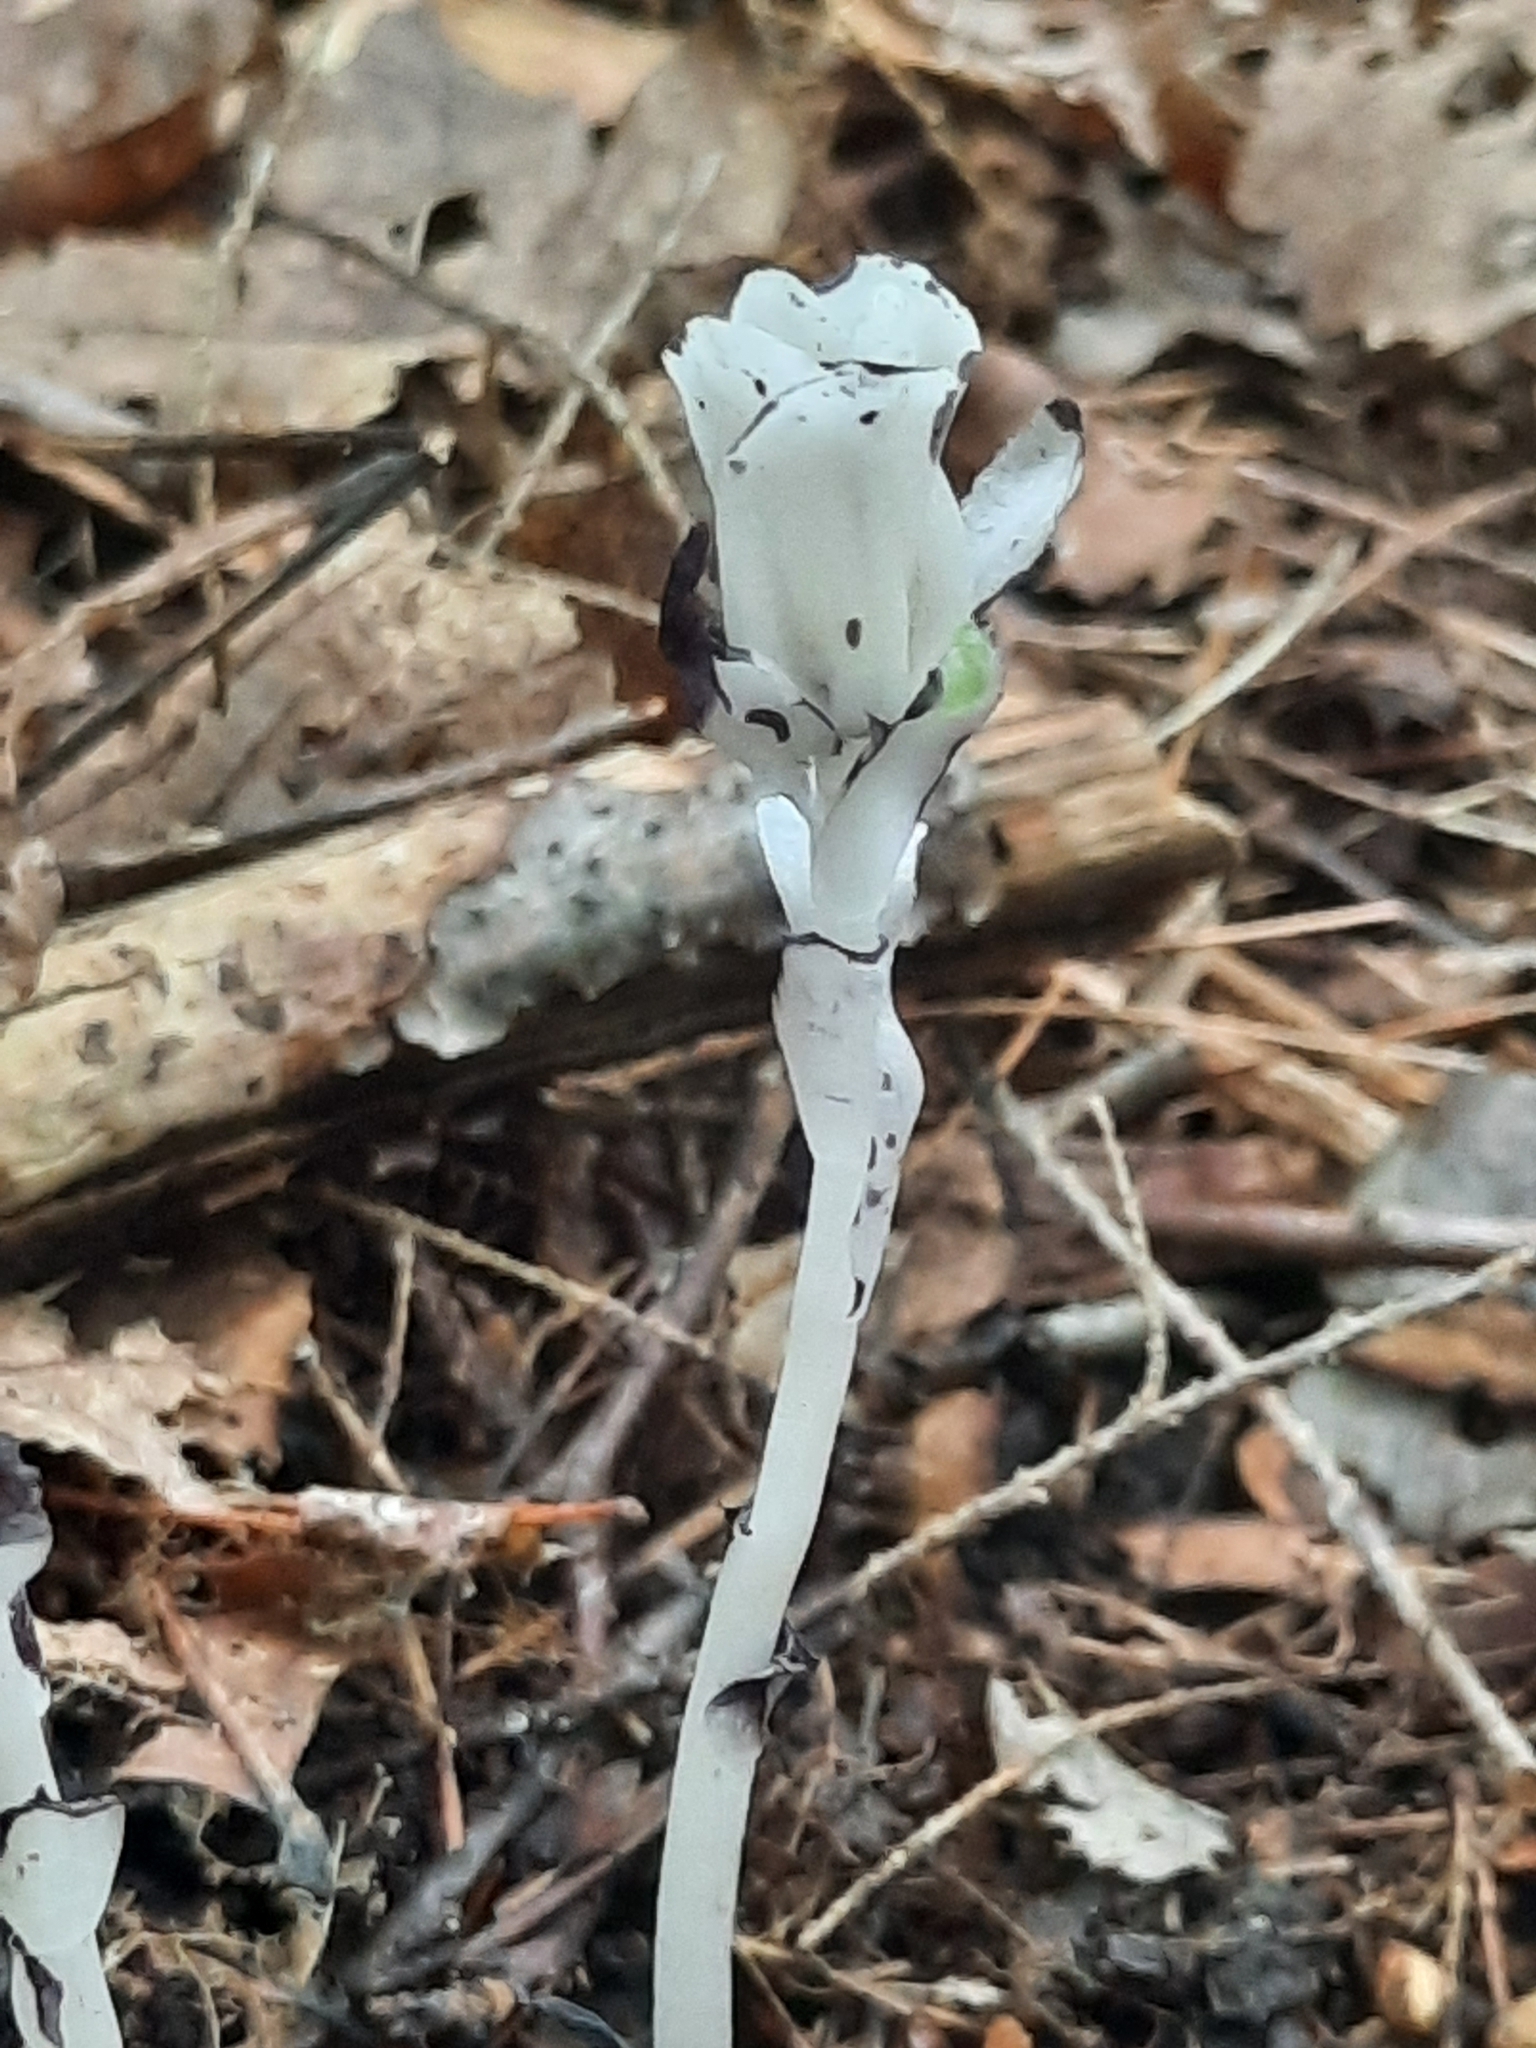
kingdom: Plantae
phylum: Tracheophyta
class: Magnoliopsida
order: Ericales
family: Ericaceae
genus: Monotropa
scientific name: Monotropa uniflora
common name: Convulsion root
